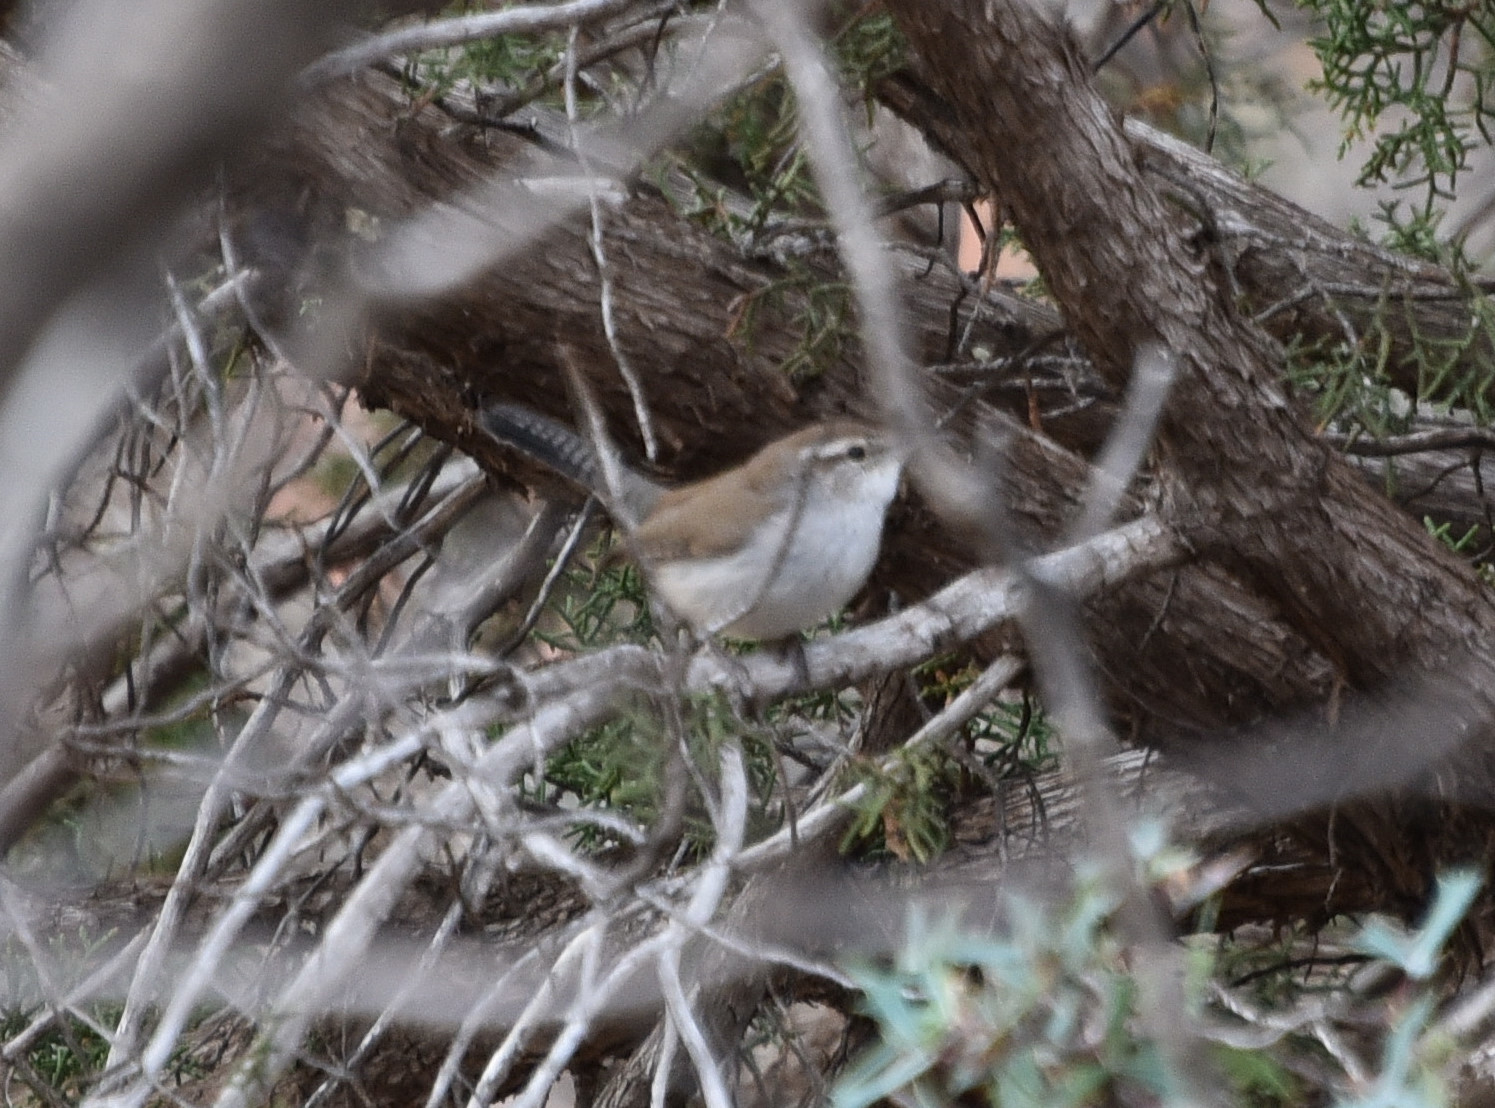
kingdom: Animalia
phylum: Chordata
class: Aves
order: Passeriformes
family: Troglodytidae
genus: Thryomanes
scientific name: Thryomanes bewickii
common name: Bewick's wren
